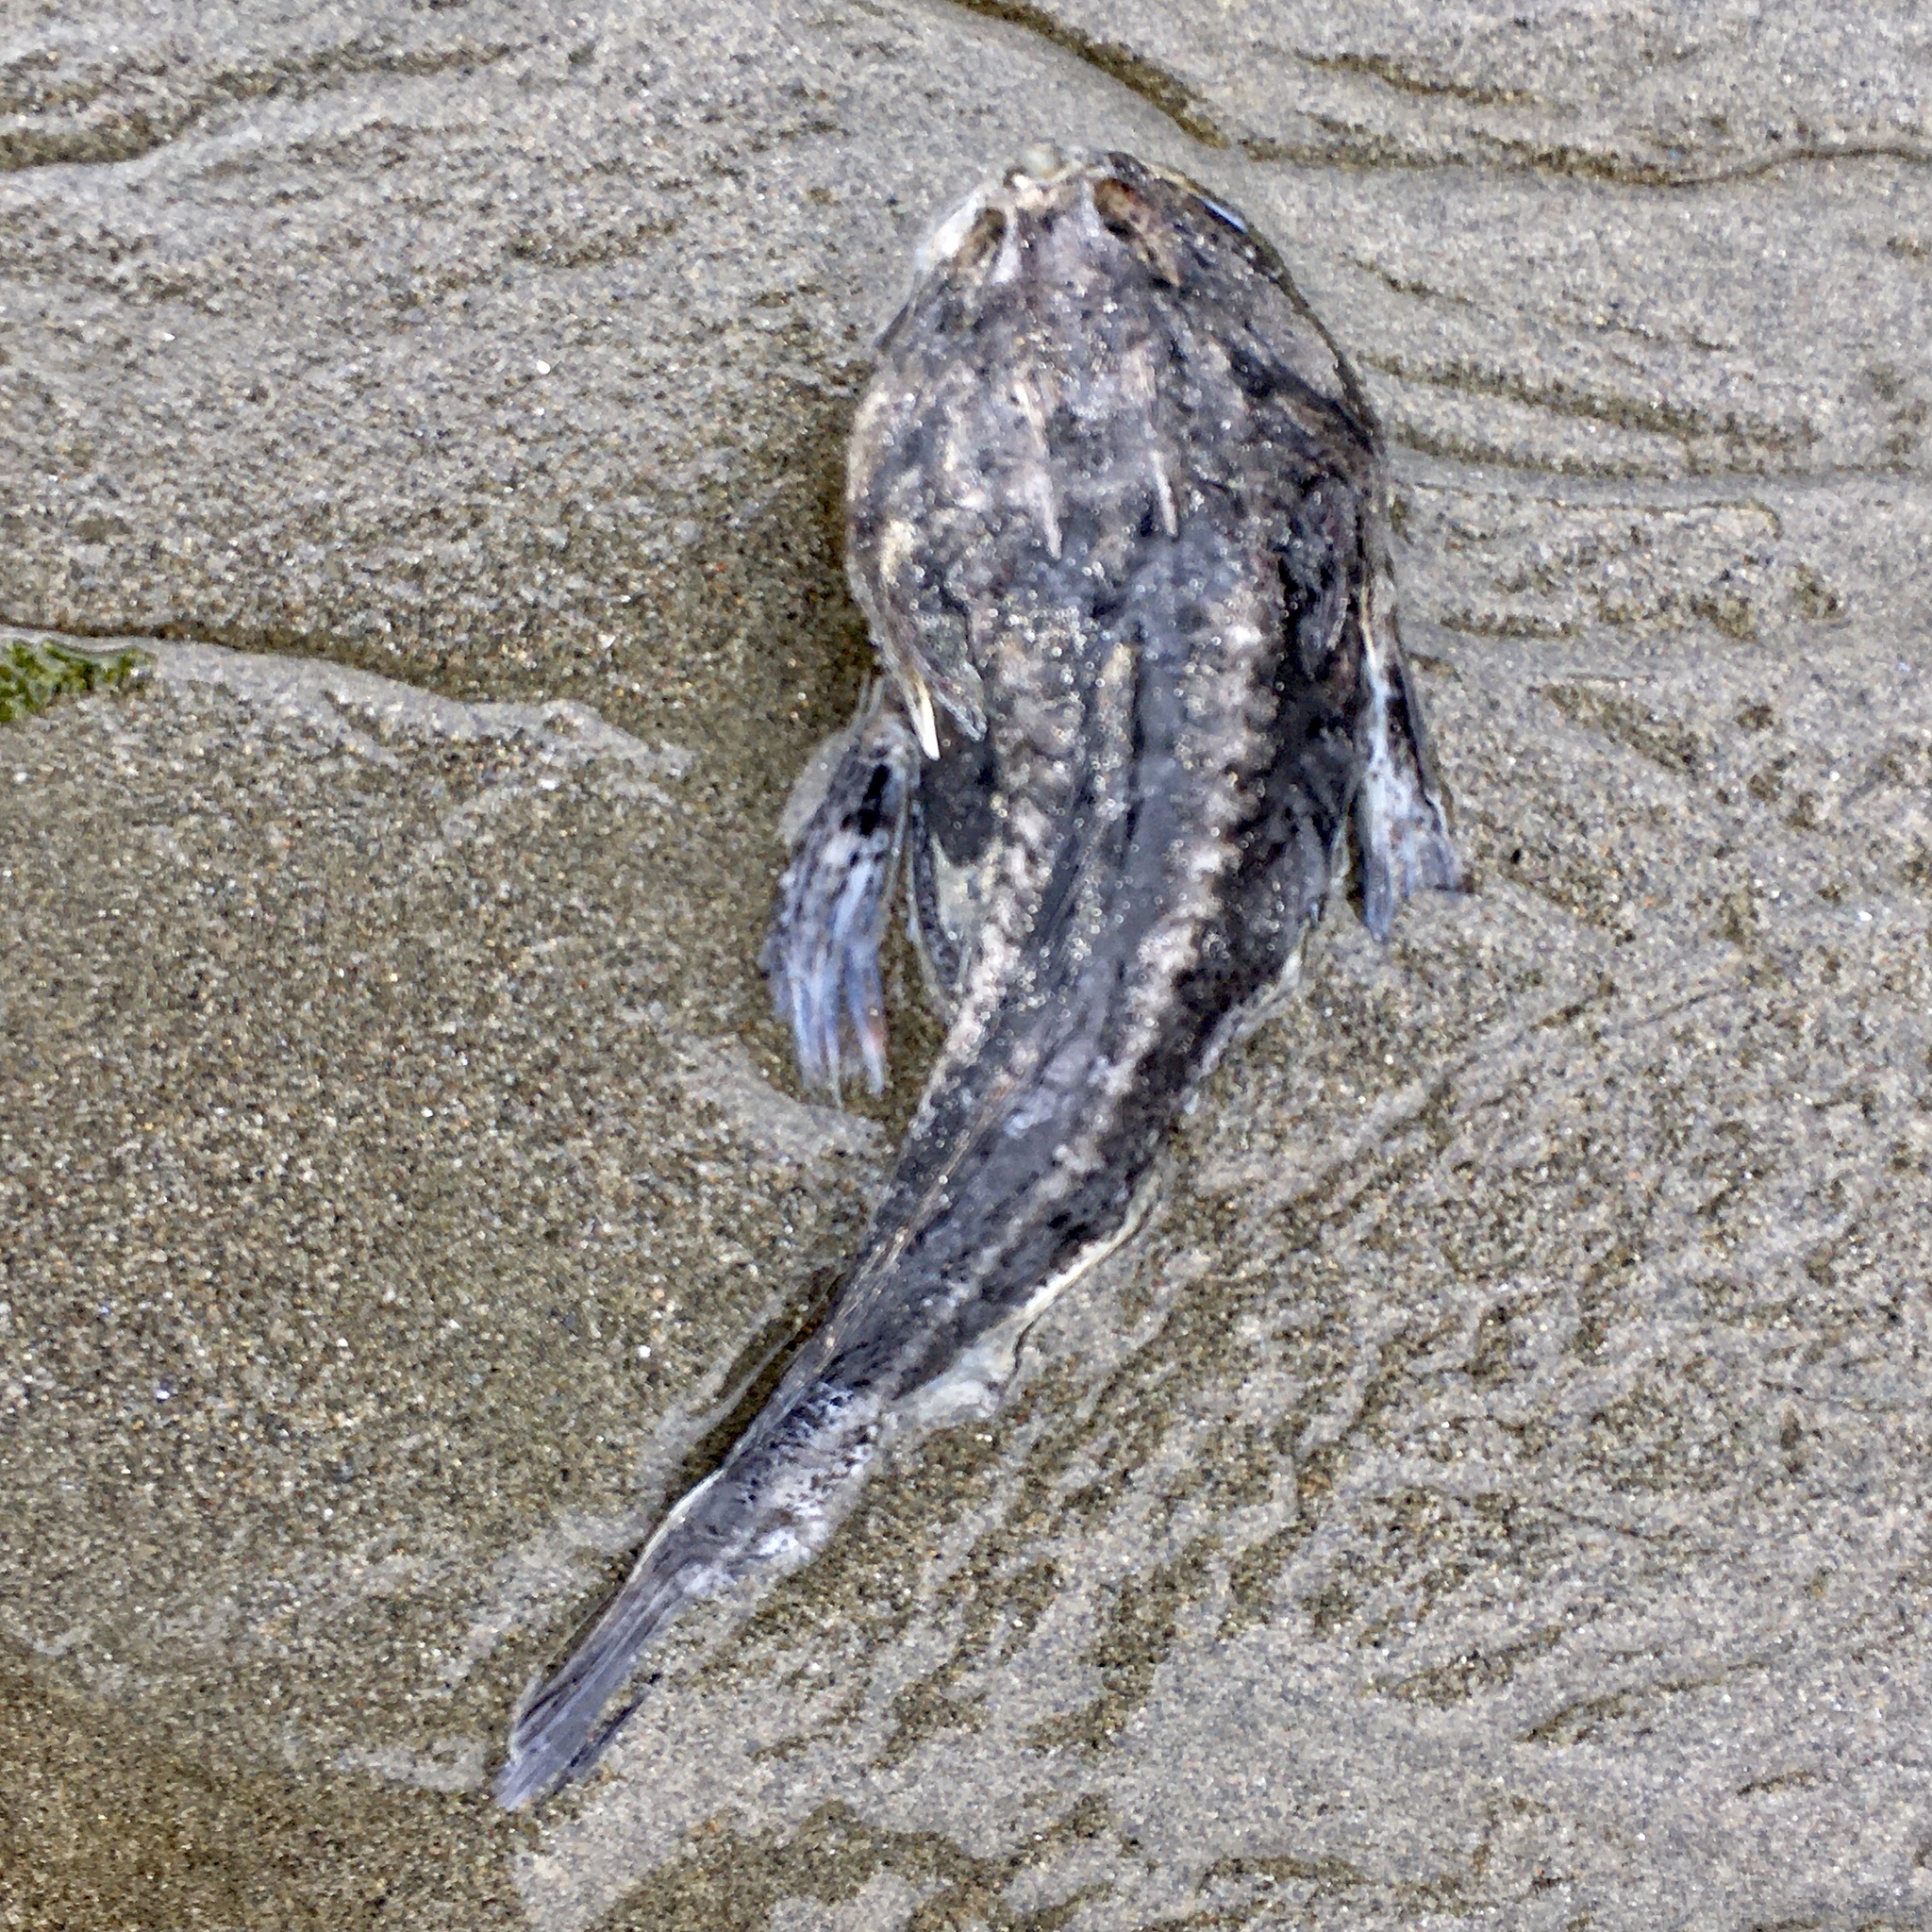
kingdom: Animalia
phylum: Chordata
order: Scorpaeniformes
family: Cottidae
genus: Enophrys
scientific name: Enophrys bison
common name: Buffalo sculpin
